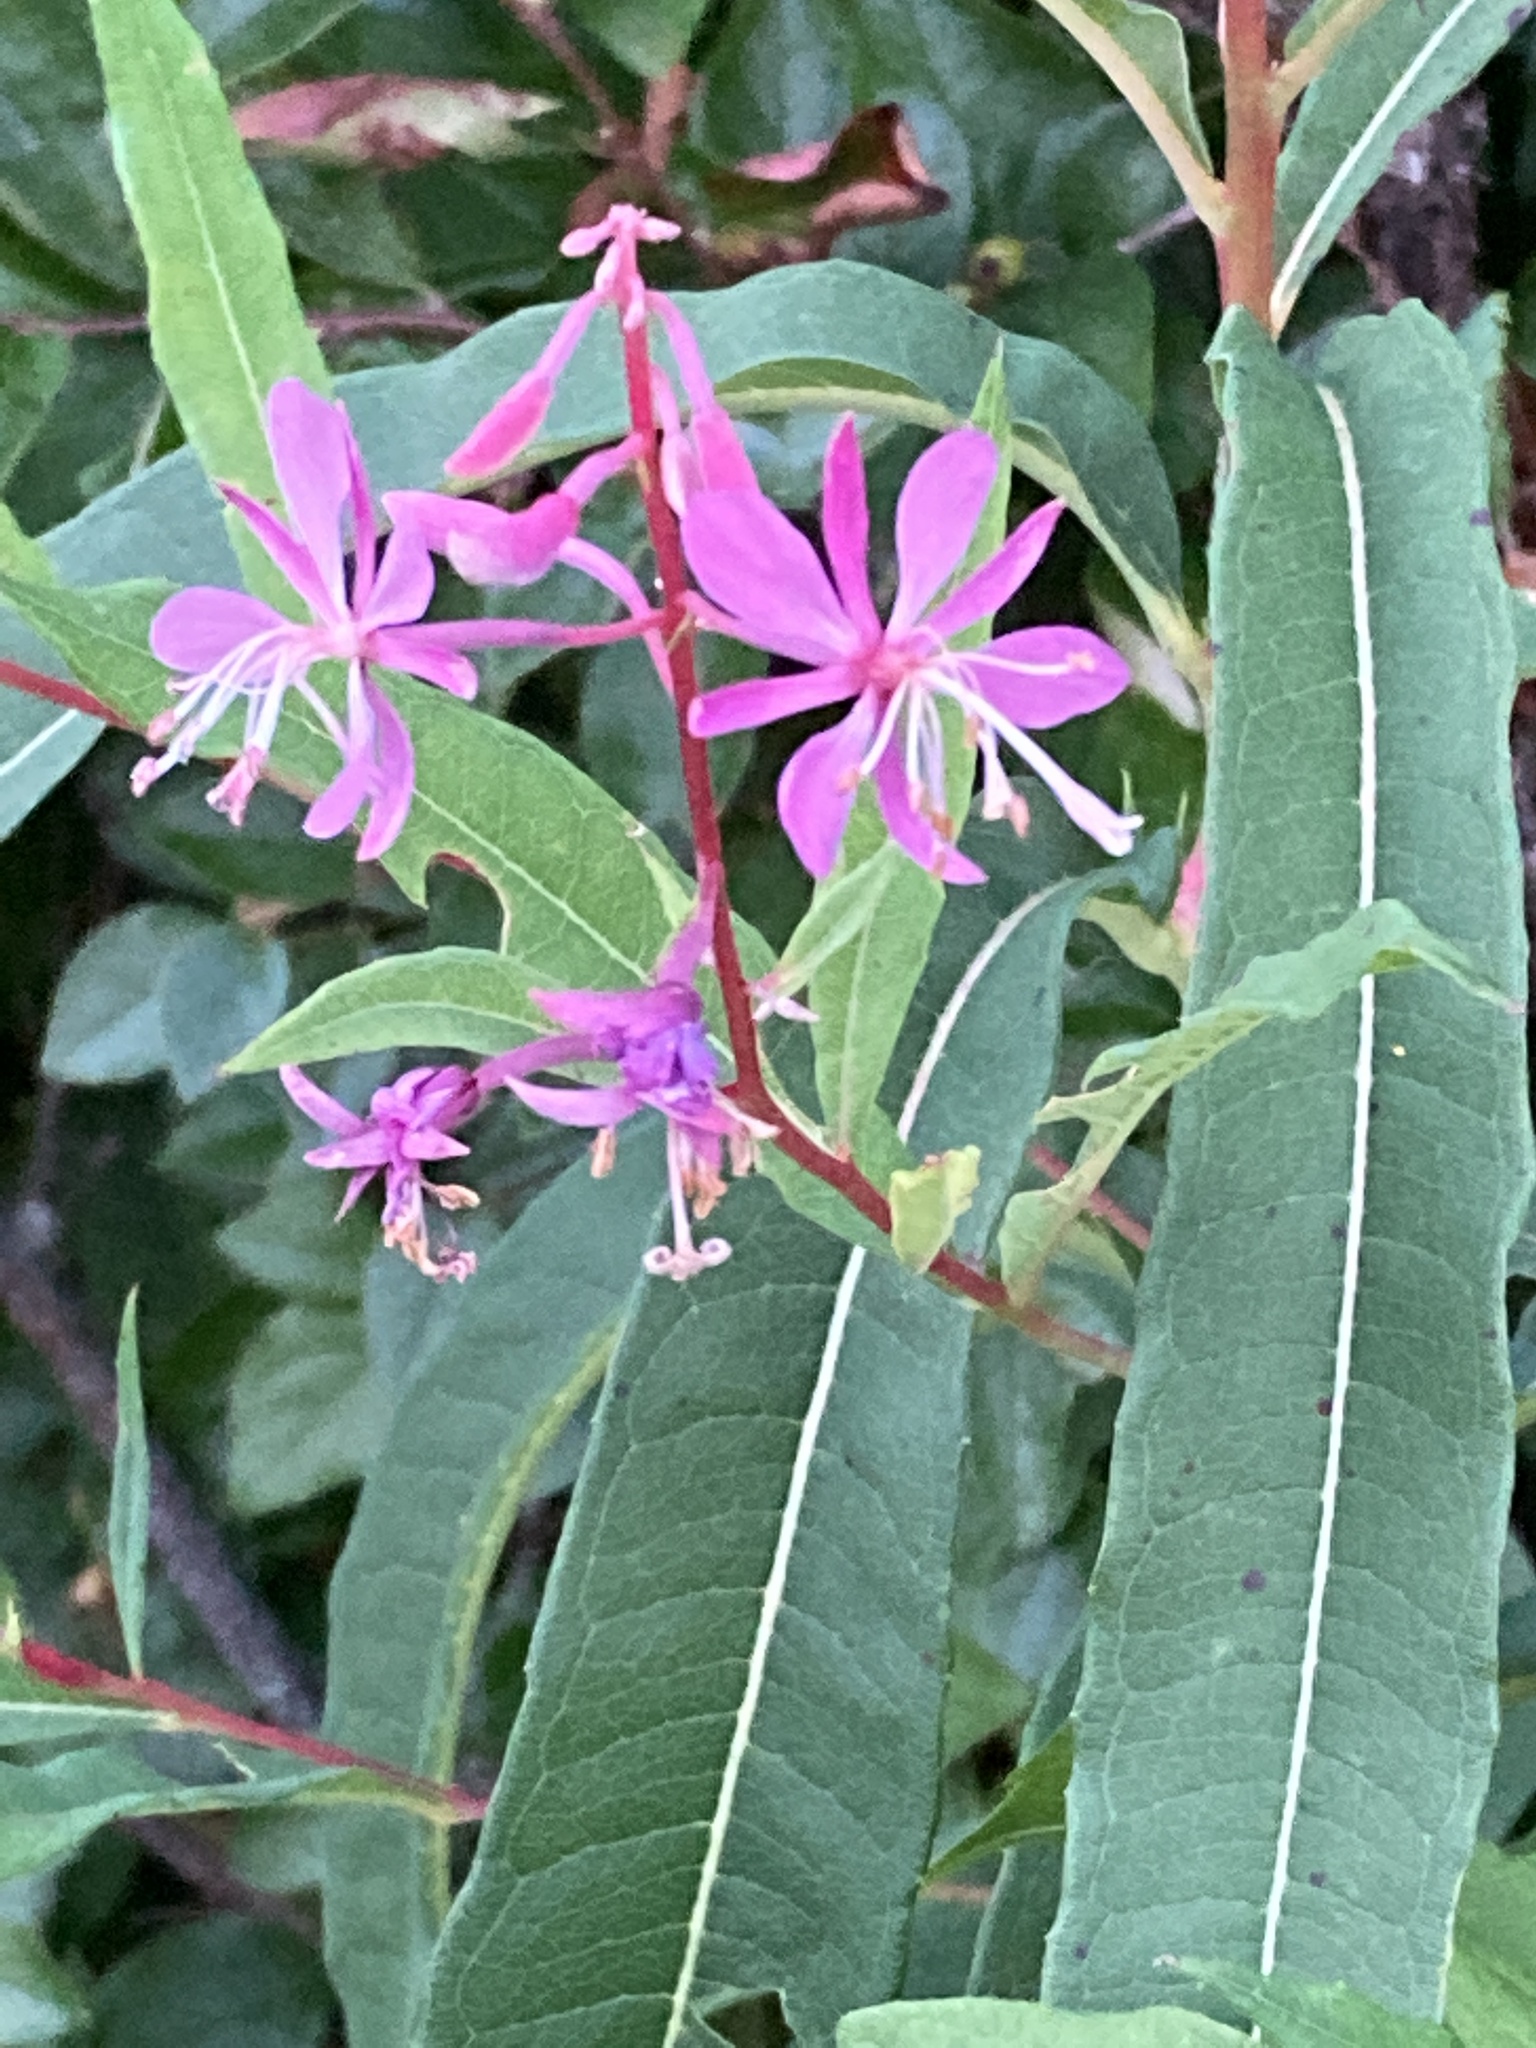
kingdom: Plantae
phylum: Tracheophyta
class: Magnoliopsida
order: Myrtales
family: Onagraceae
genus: Chamaenerion
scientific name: Chamaenerion angustifolium
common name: Fireweed
